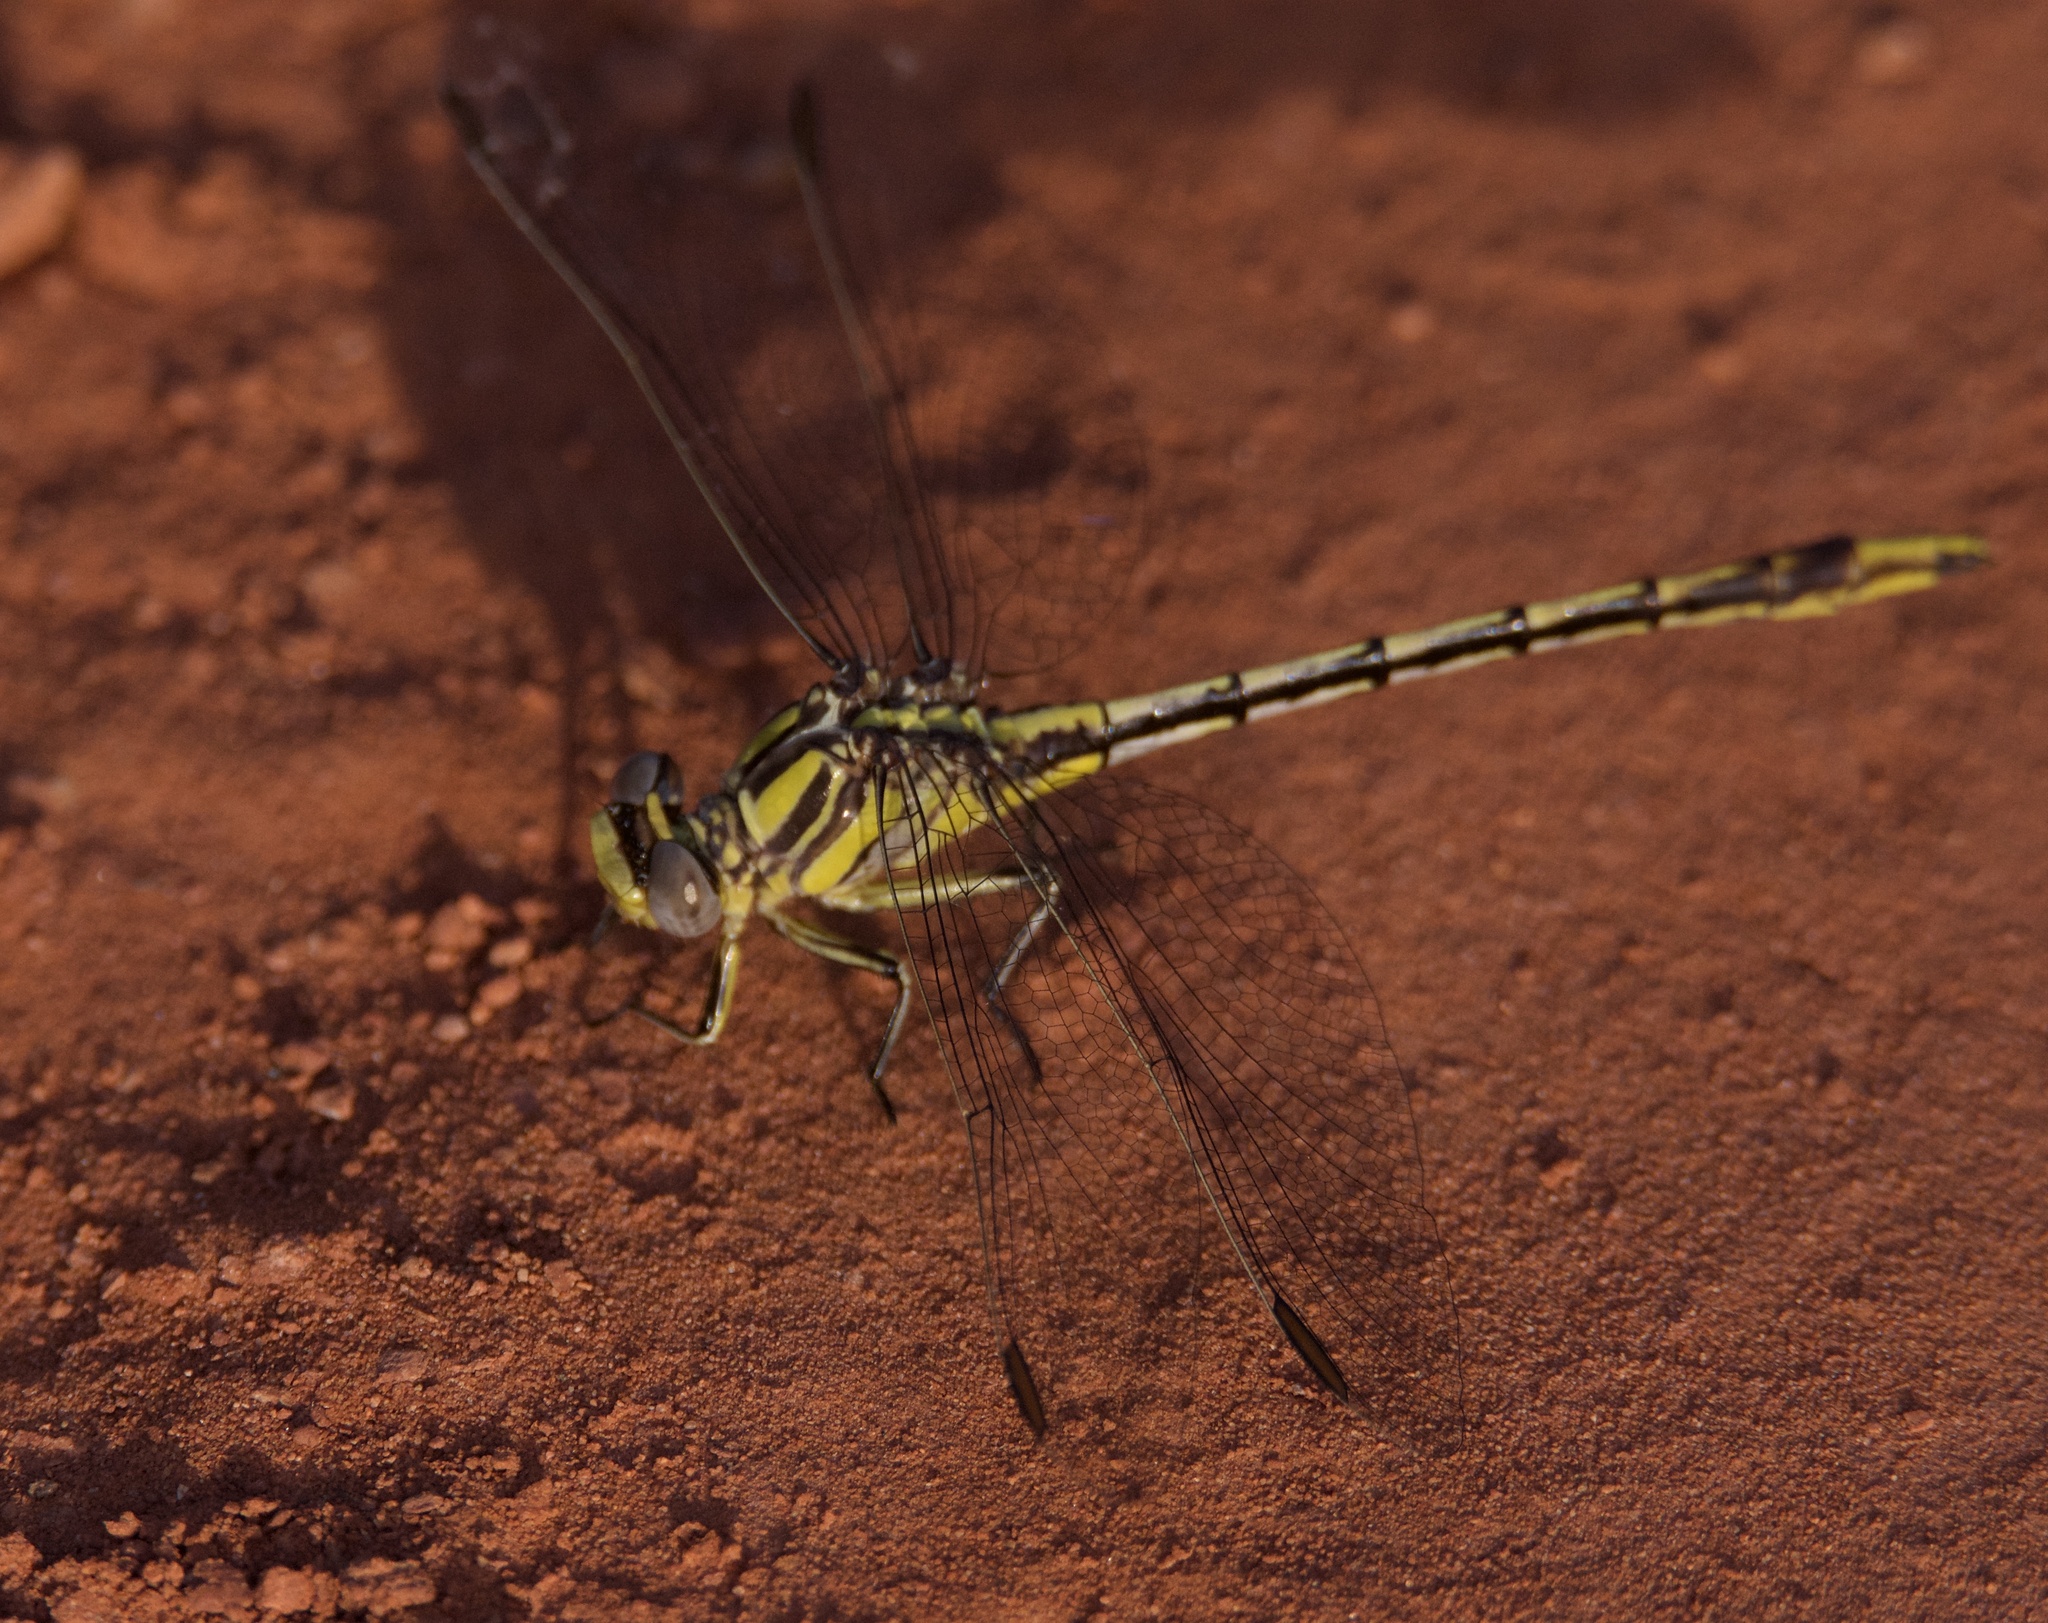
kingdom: Animalia
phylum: Arthropoda
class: Insecta
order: Odonata
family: Gomphidae
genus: Phanogomphus
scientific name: Phanogomphus militaris
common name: Sulphur-tipped clubtail
